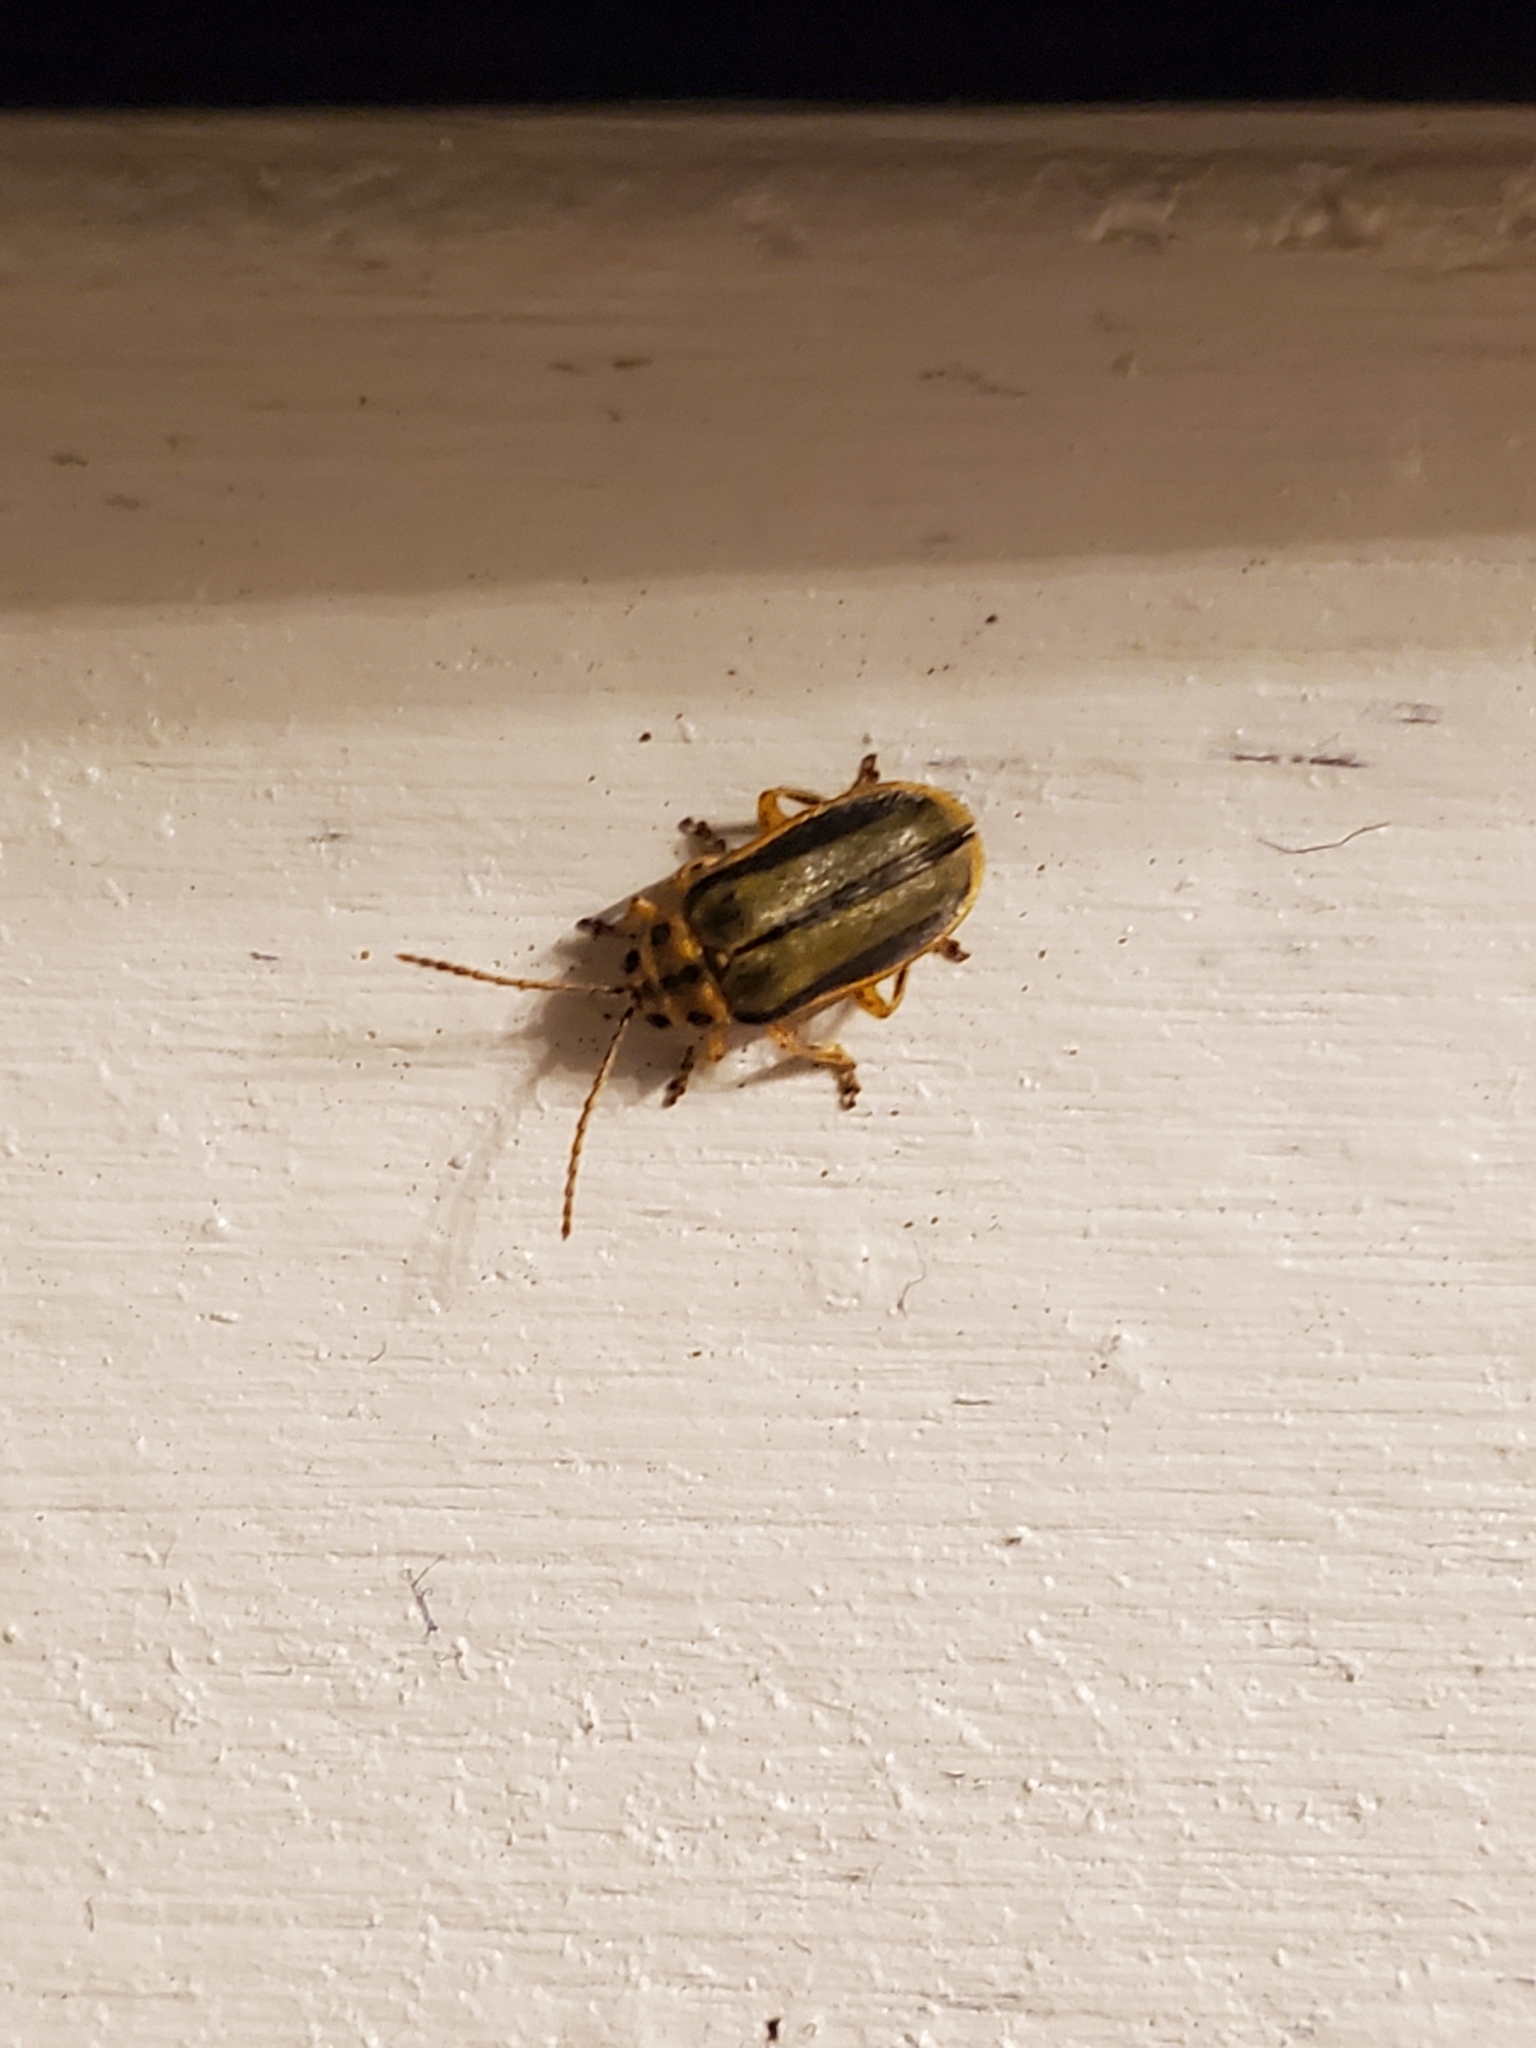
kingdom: Animalia
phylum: Arthropoda
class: Insecta
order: Coleoptera
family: Chrysomelidae
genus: Xanthogaleruca
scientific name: Xanthogaleruca luteola
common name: Elm leaf beetle
